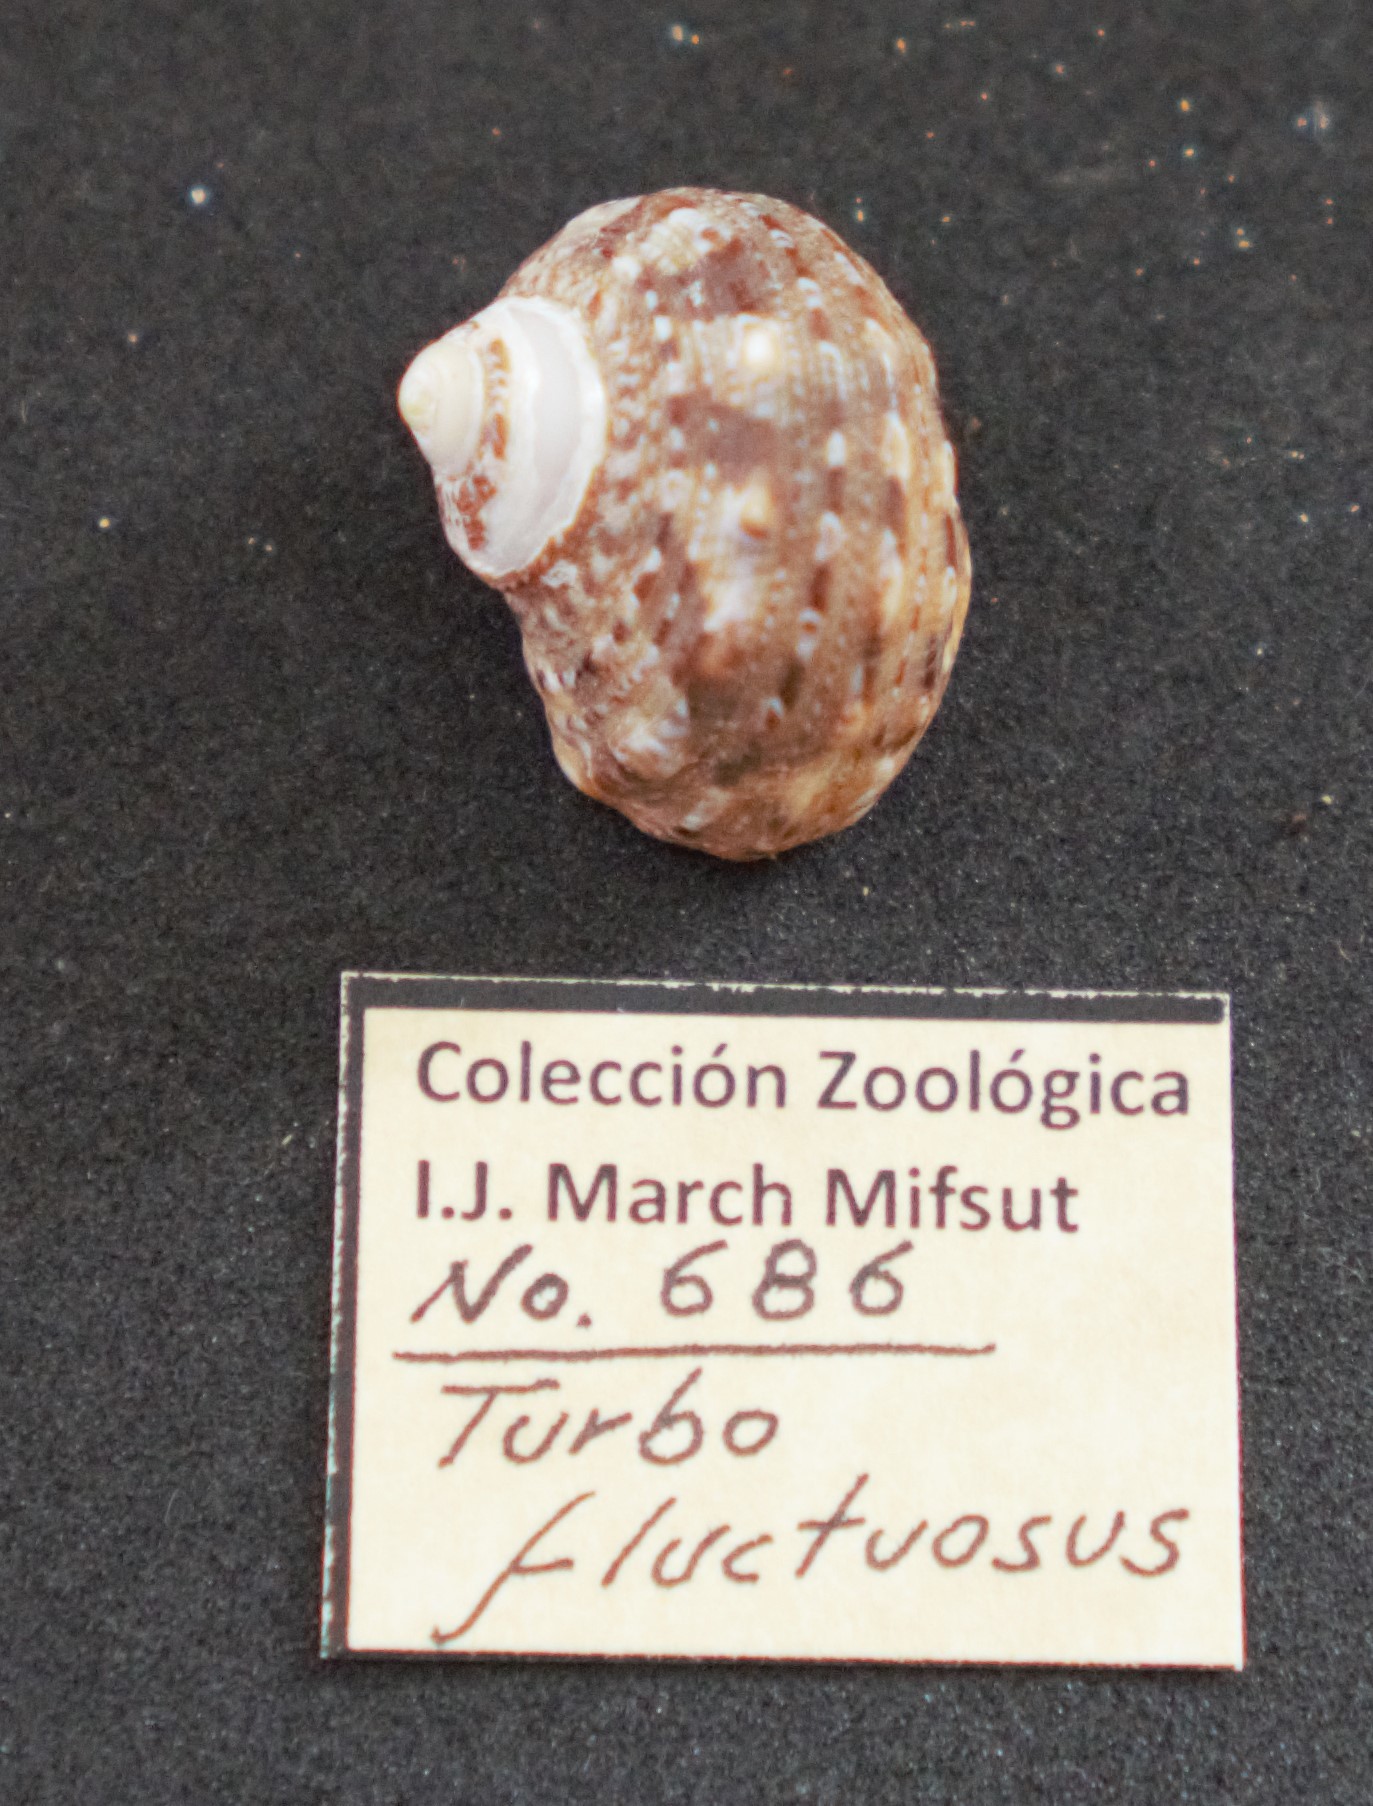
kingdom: Animalia
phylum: Mollusca
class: Gastropoda
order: Trochida
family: Turbinidae
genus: Turbo
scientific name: Turbo fluctuosus
